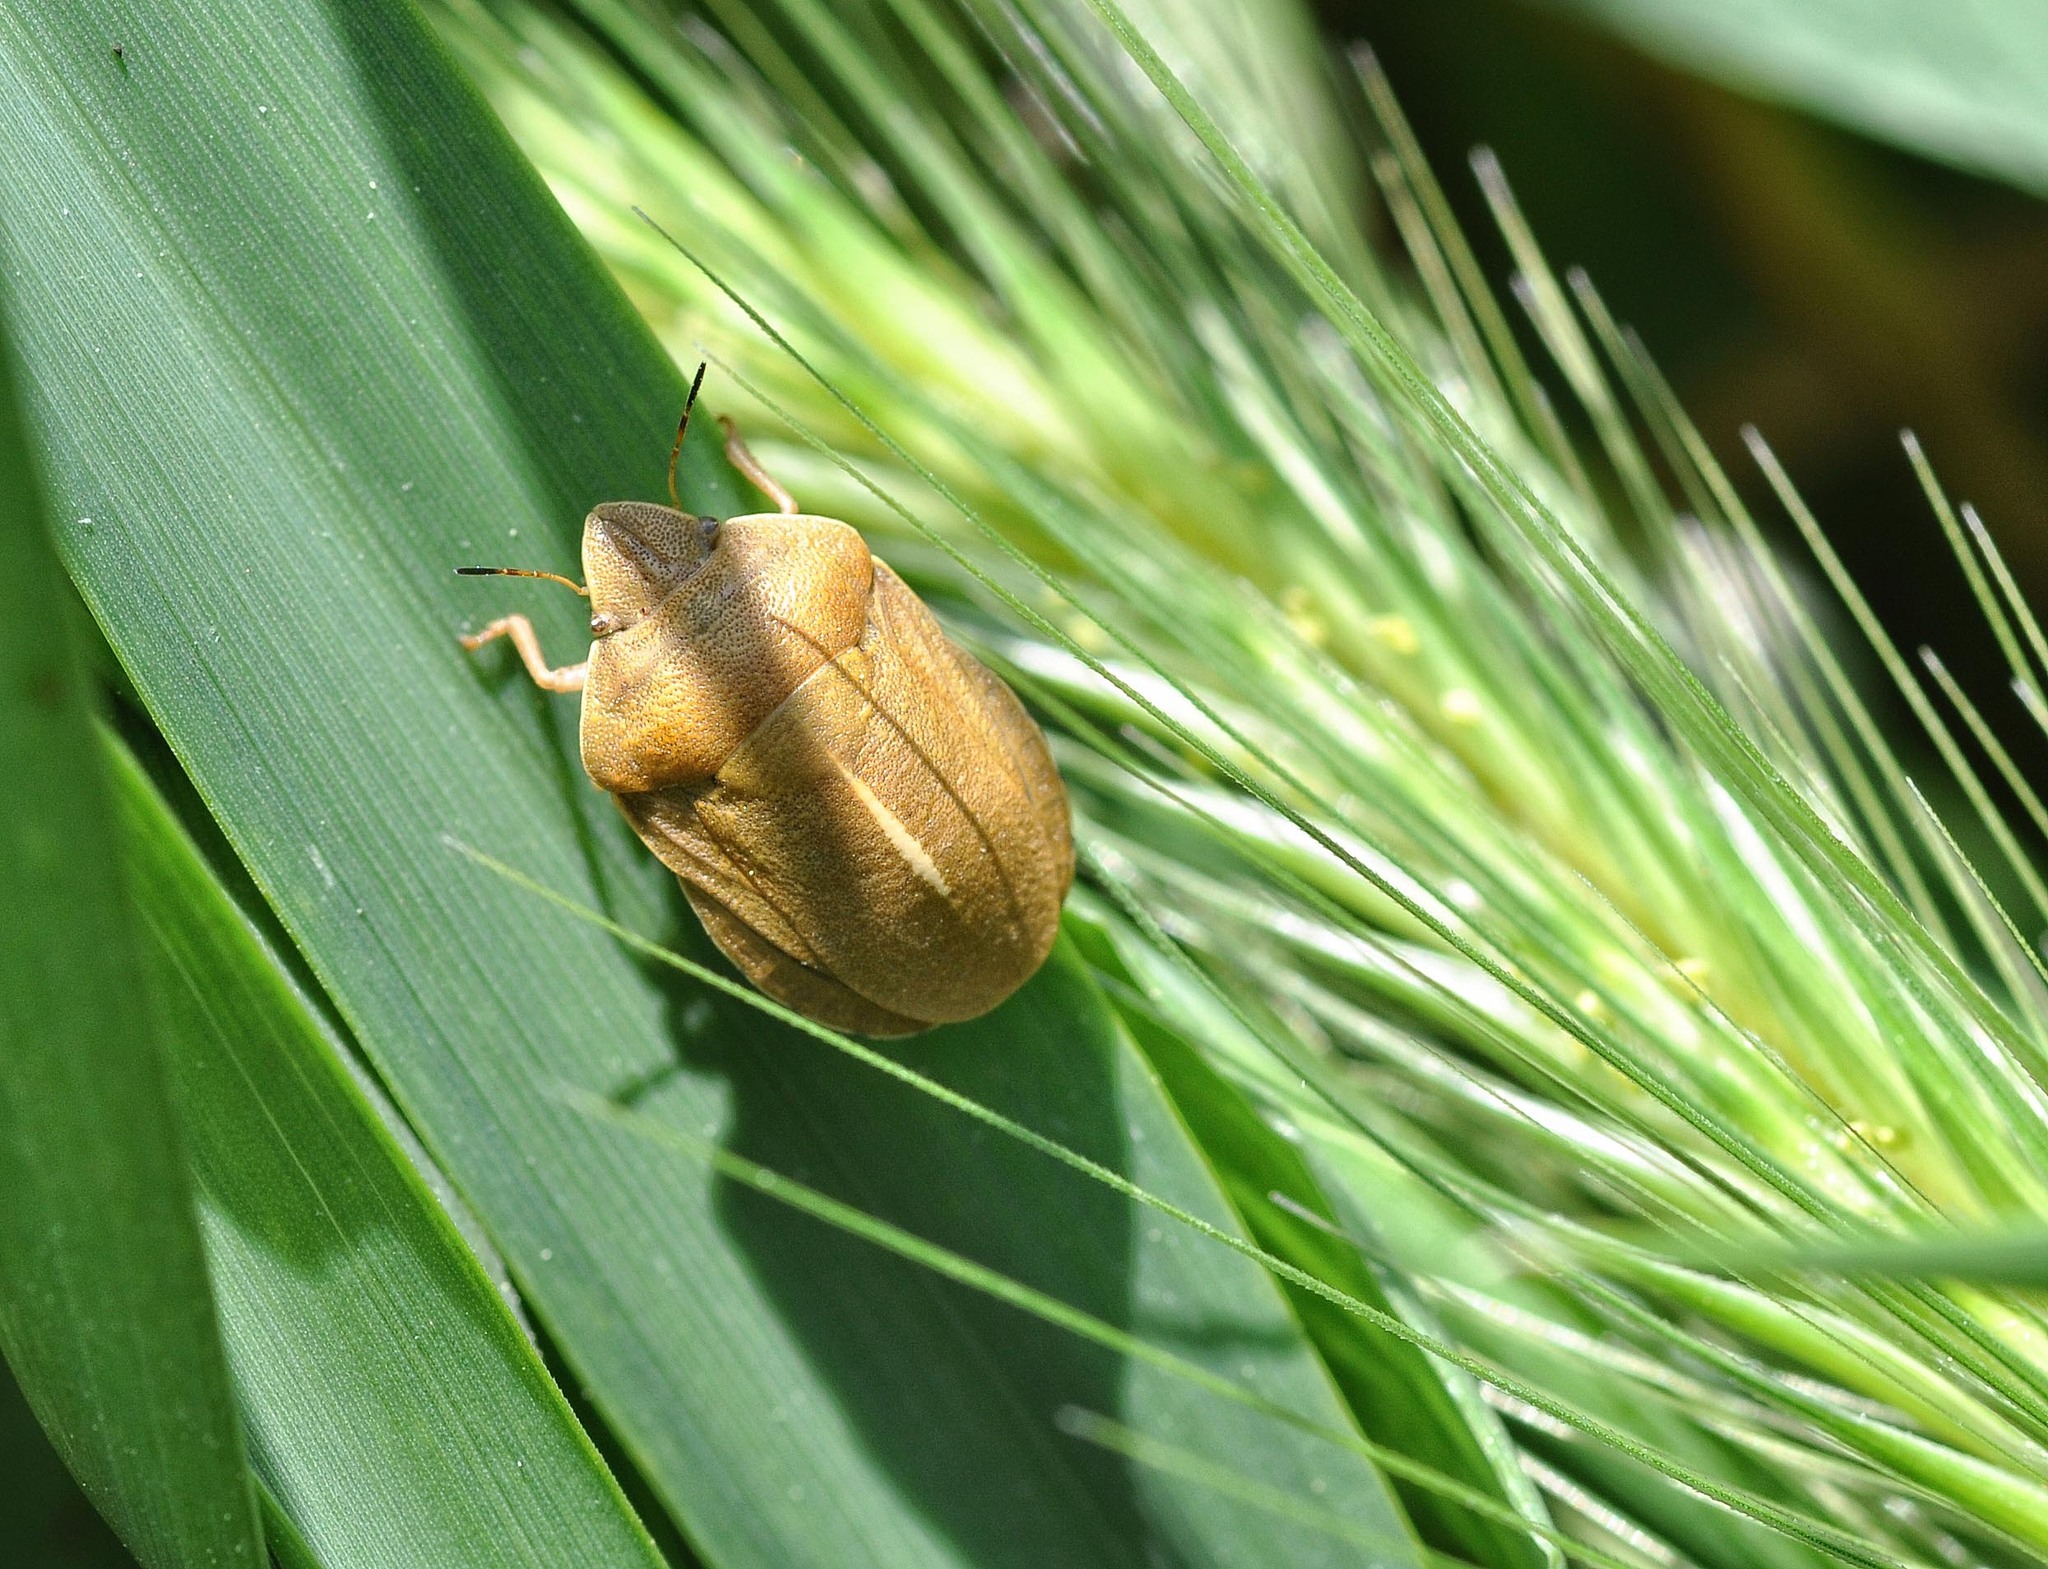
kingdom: Animalia
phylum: Arthropoda
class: Insecta
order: Hemiptera
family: Scutelleridae
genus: Eurygaster
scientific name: Eurygaster austriaca
